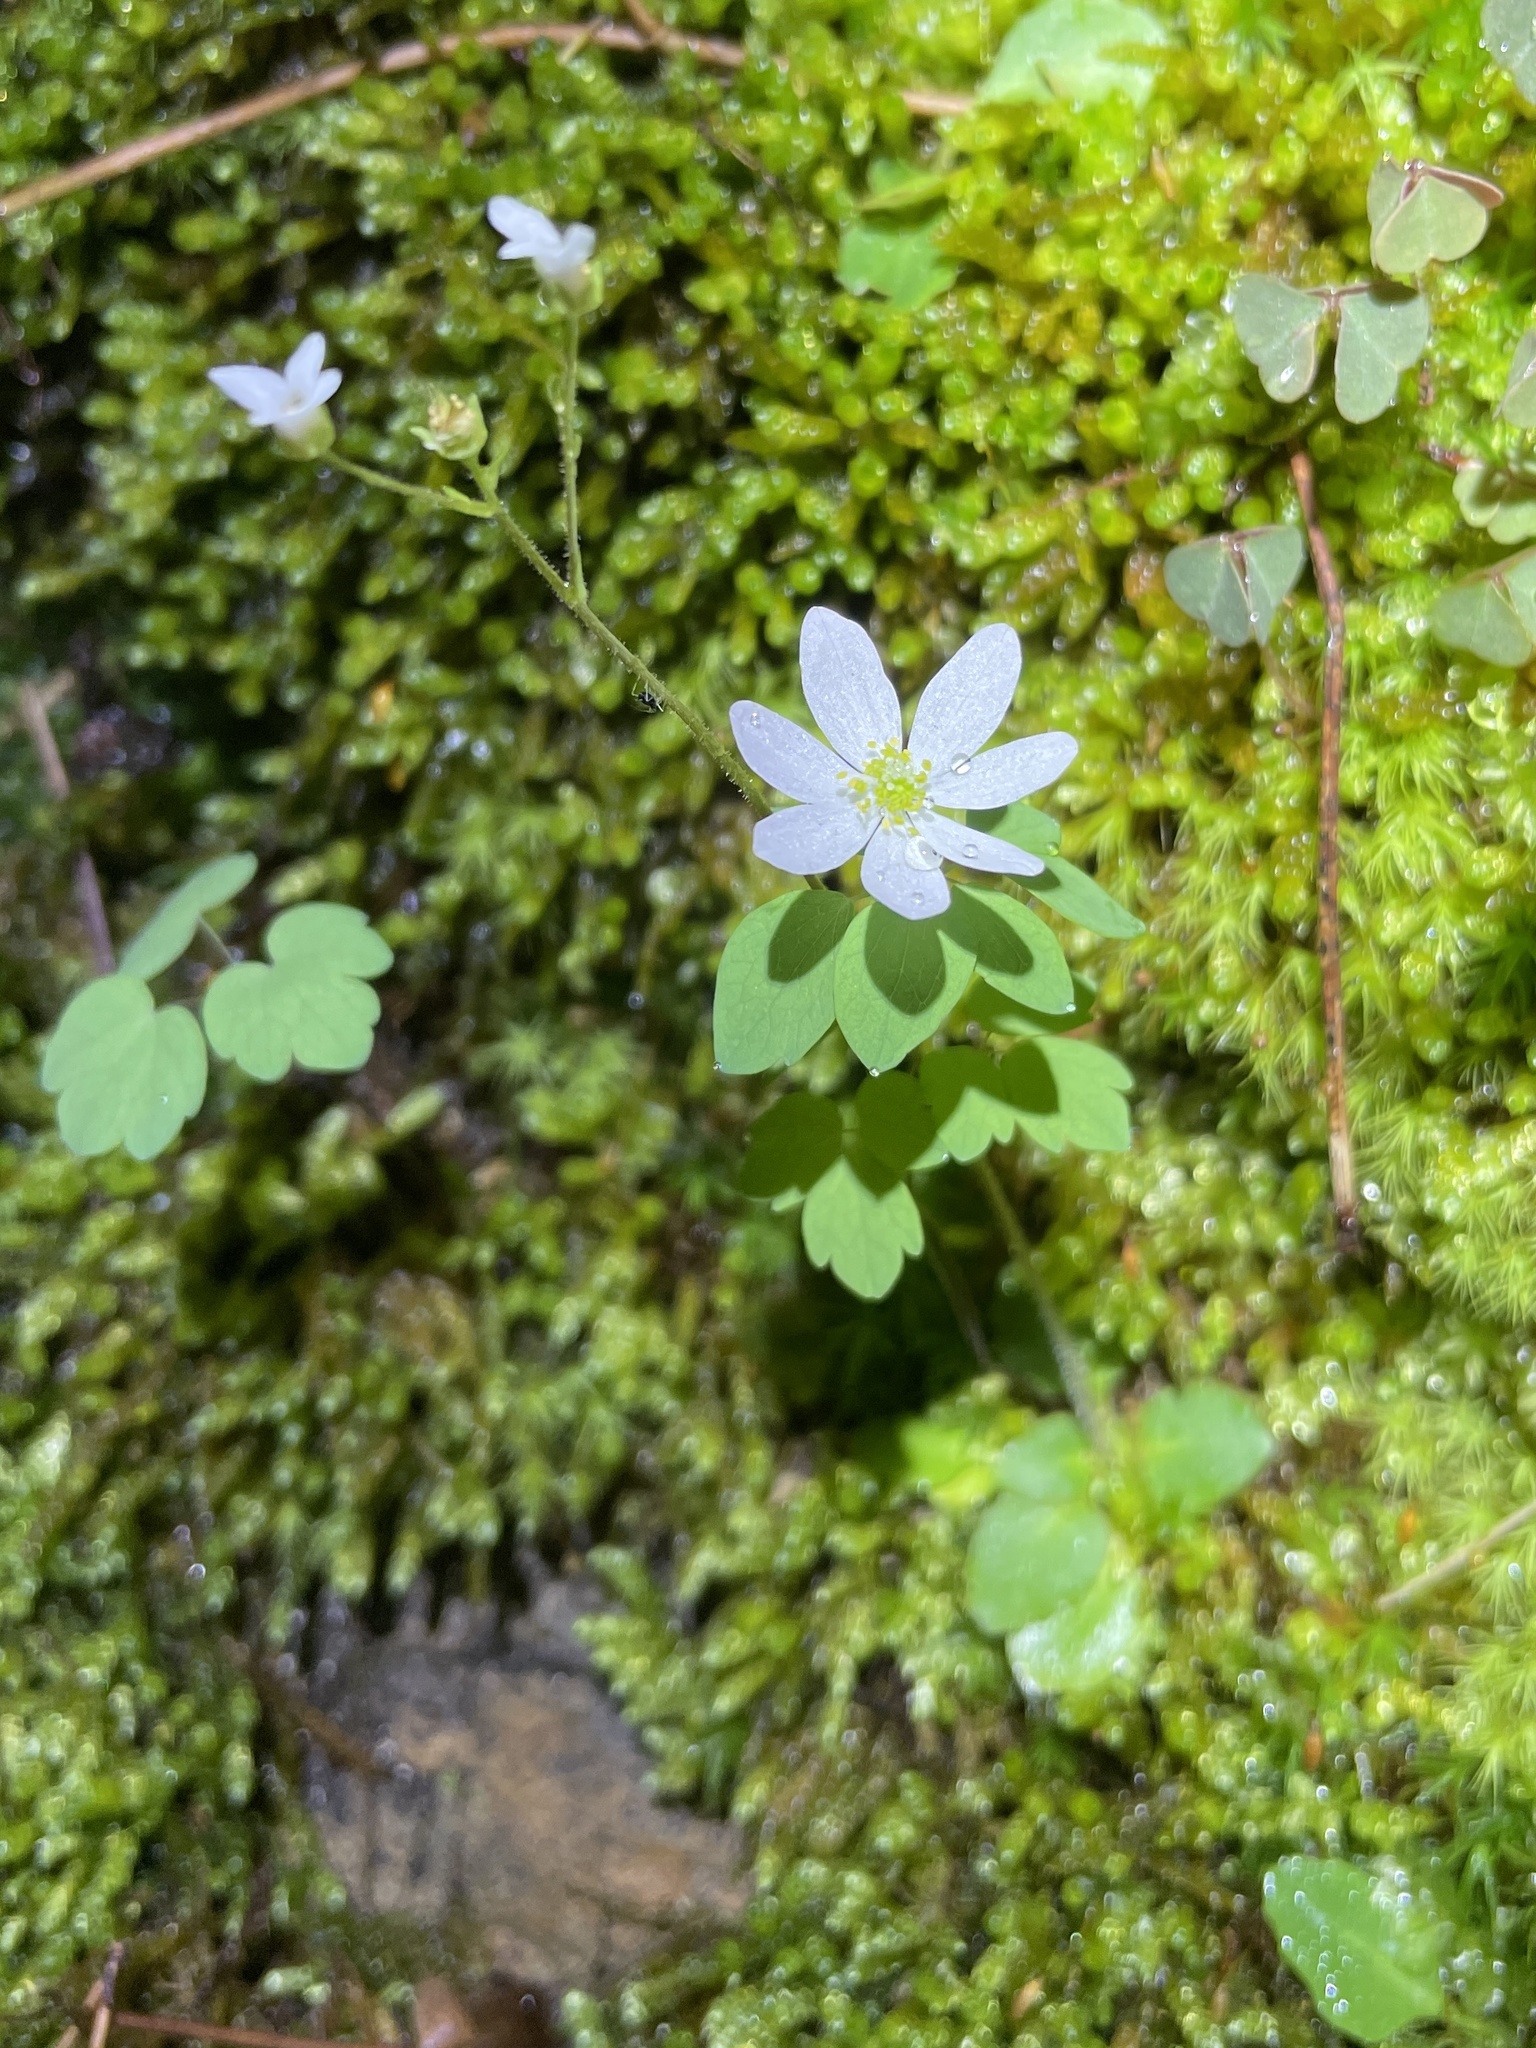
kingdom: Plantae
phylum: Tracheophyta
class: Magnoliopsida
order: Ranunculales
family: Ranunculaceae
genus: Thalictrum
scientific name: Thalictrum thalictroides
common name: Rue-anemone
